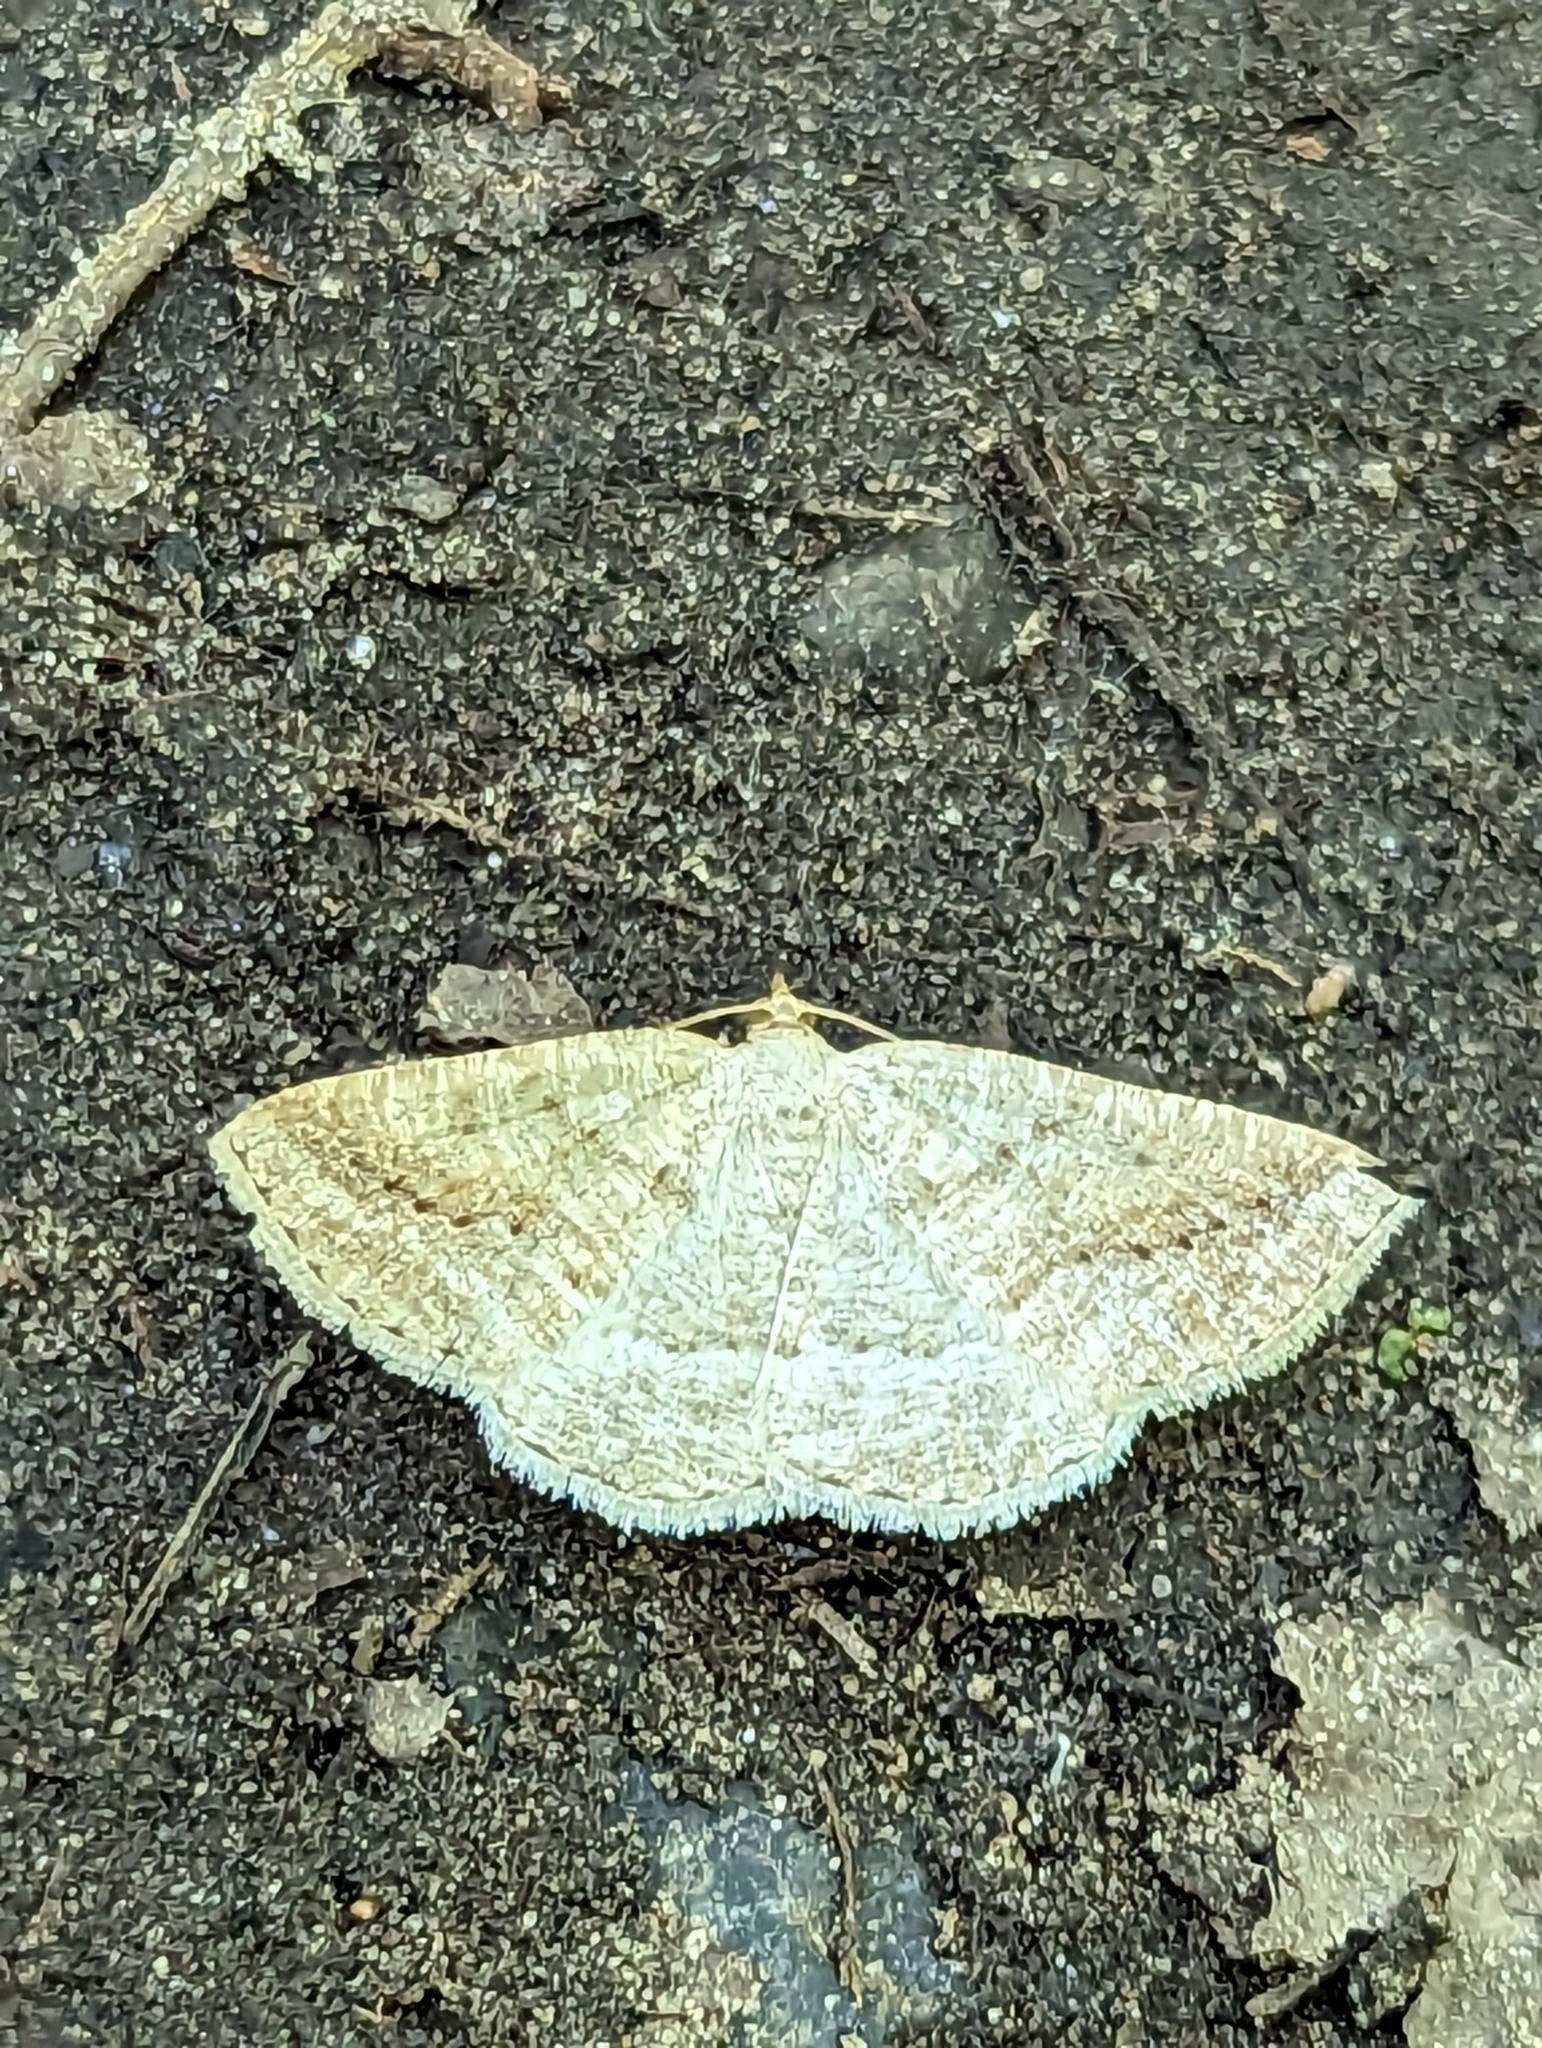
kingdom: Animalia
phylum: Arthropoda
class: Insecta
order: Lepidoptera
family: Geometridae
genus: Tacparia
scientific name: Tacparia detersata
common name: Pale alder moth
